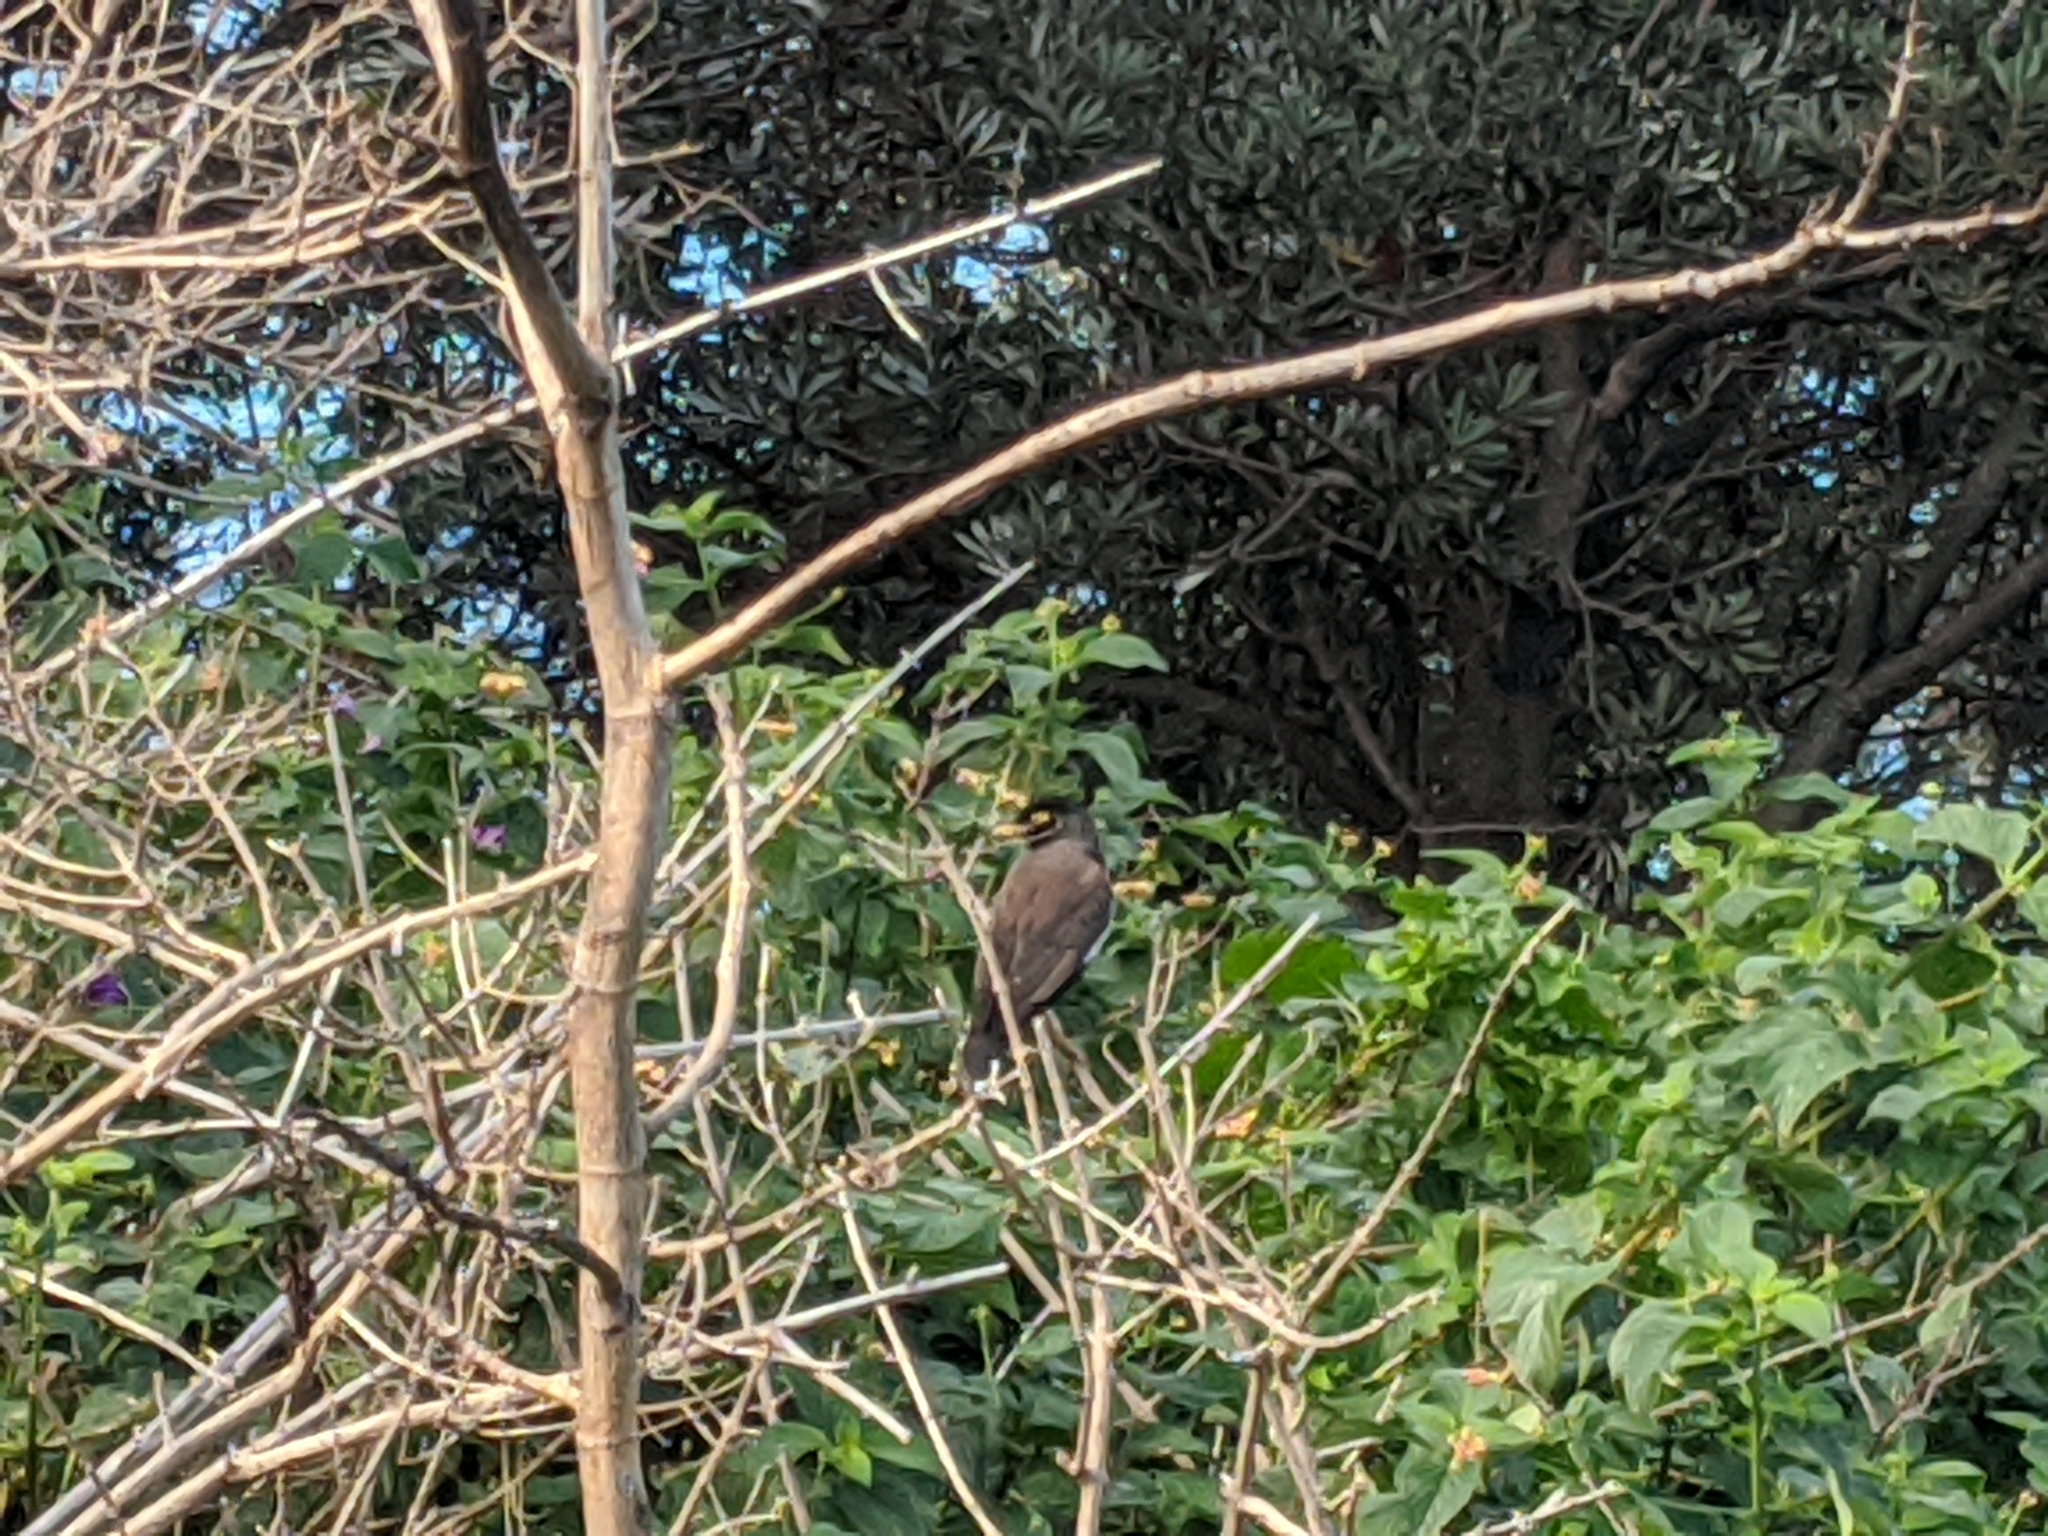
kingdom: Animalia
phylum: Chordata
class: Aves
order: Passeriformes
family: Sturnidae
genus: Acridotheres
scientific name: Acridotheres tristis
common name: Common myna
